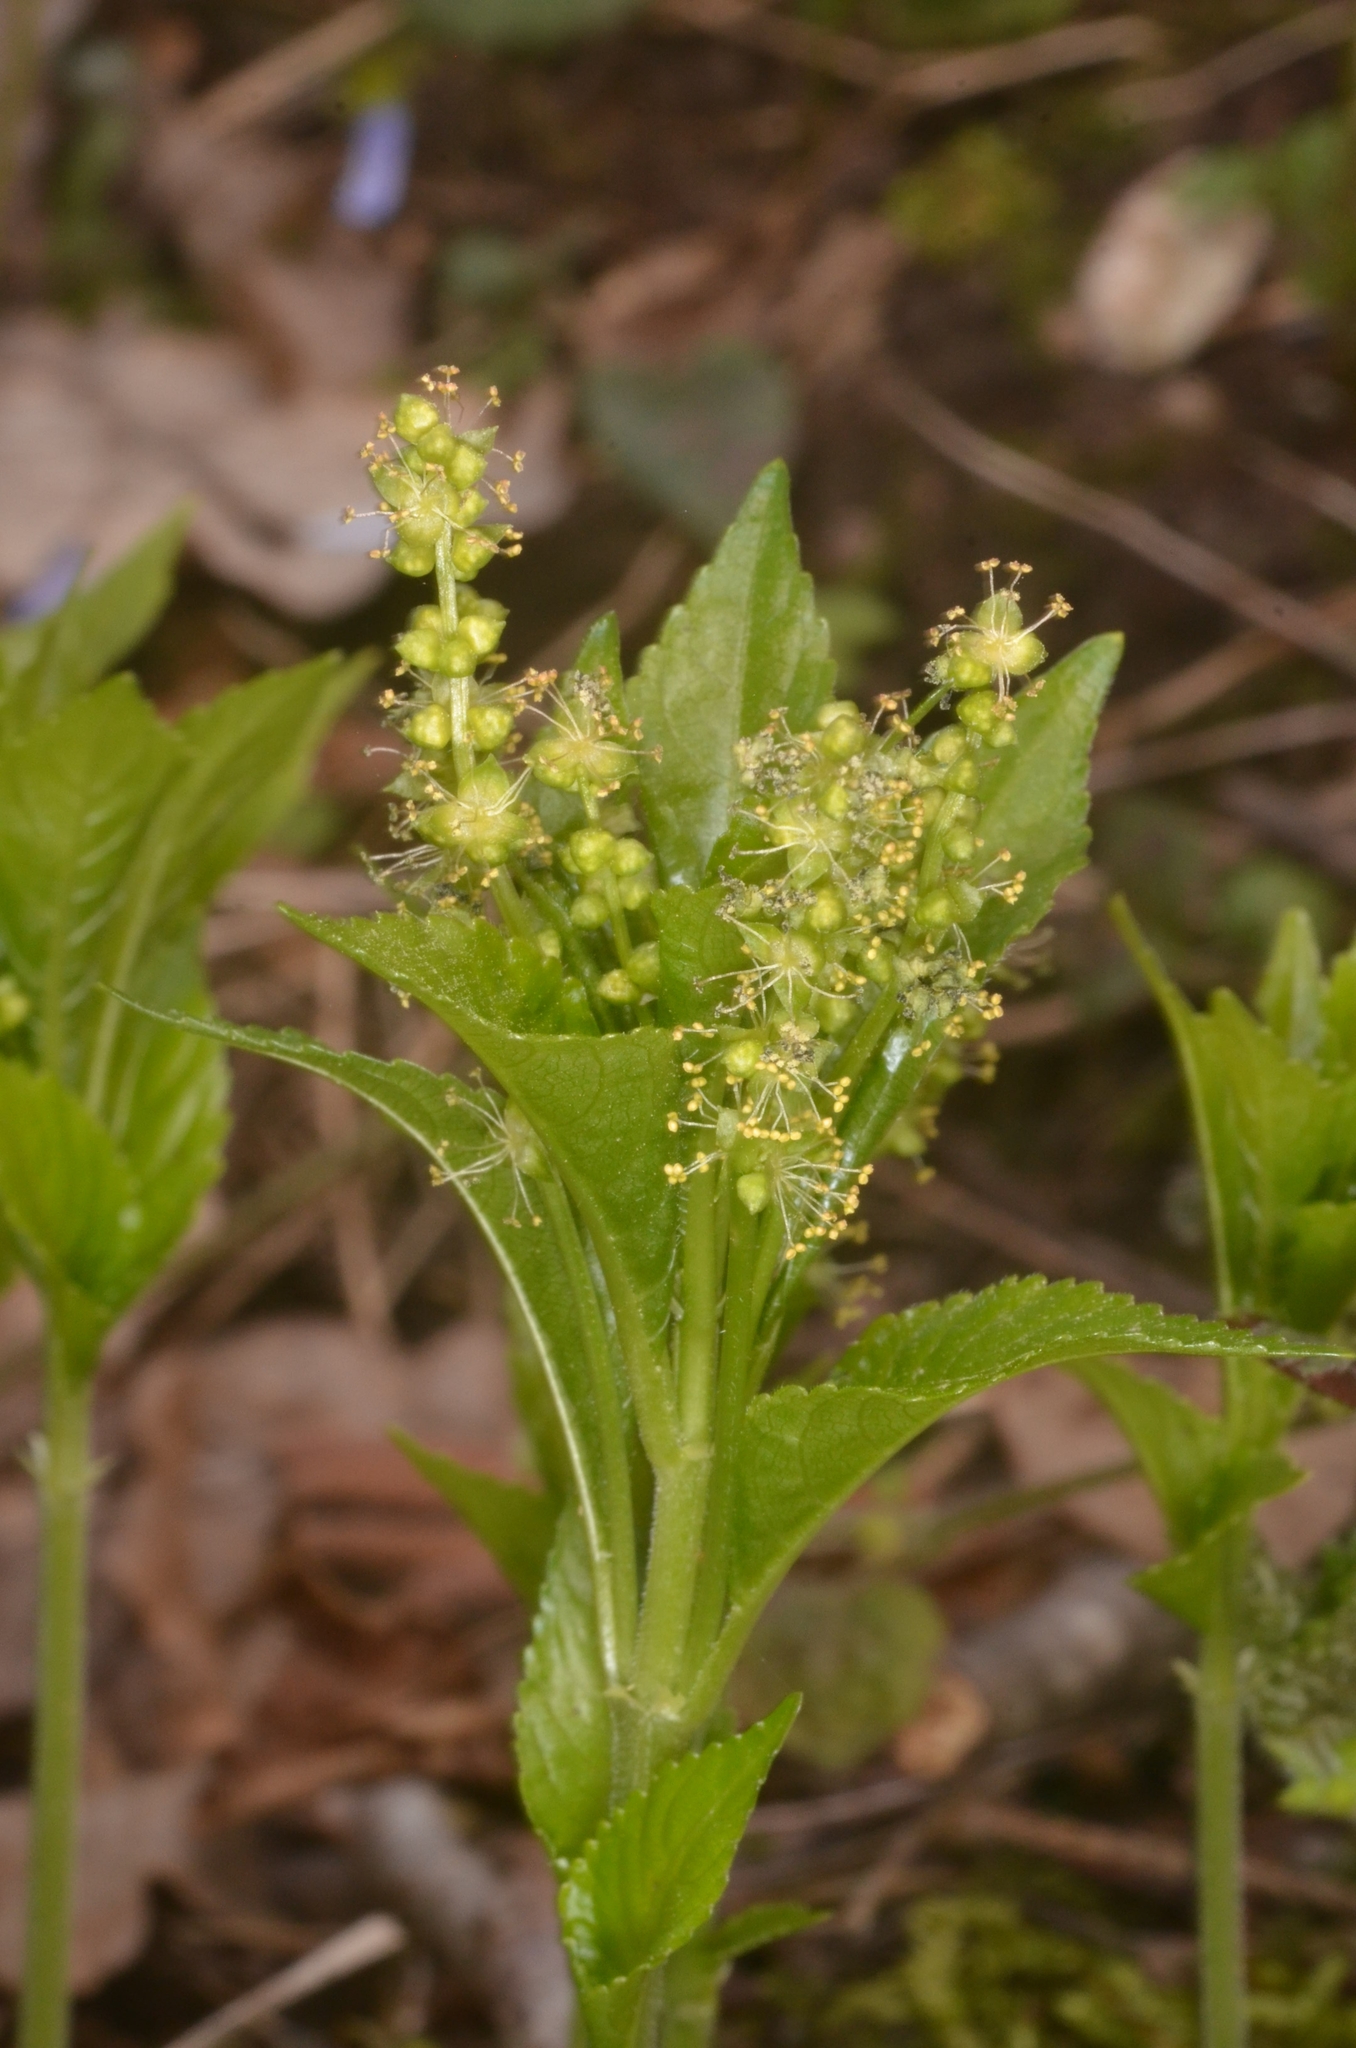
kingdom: Plantae
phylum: Tracheophyta
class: Magnoliopsida
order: Malpighiales
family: Euphorbiaceae
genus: Mercurialis
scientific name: Mercurialis perennis
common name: Dog mercury
